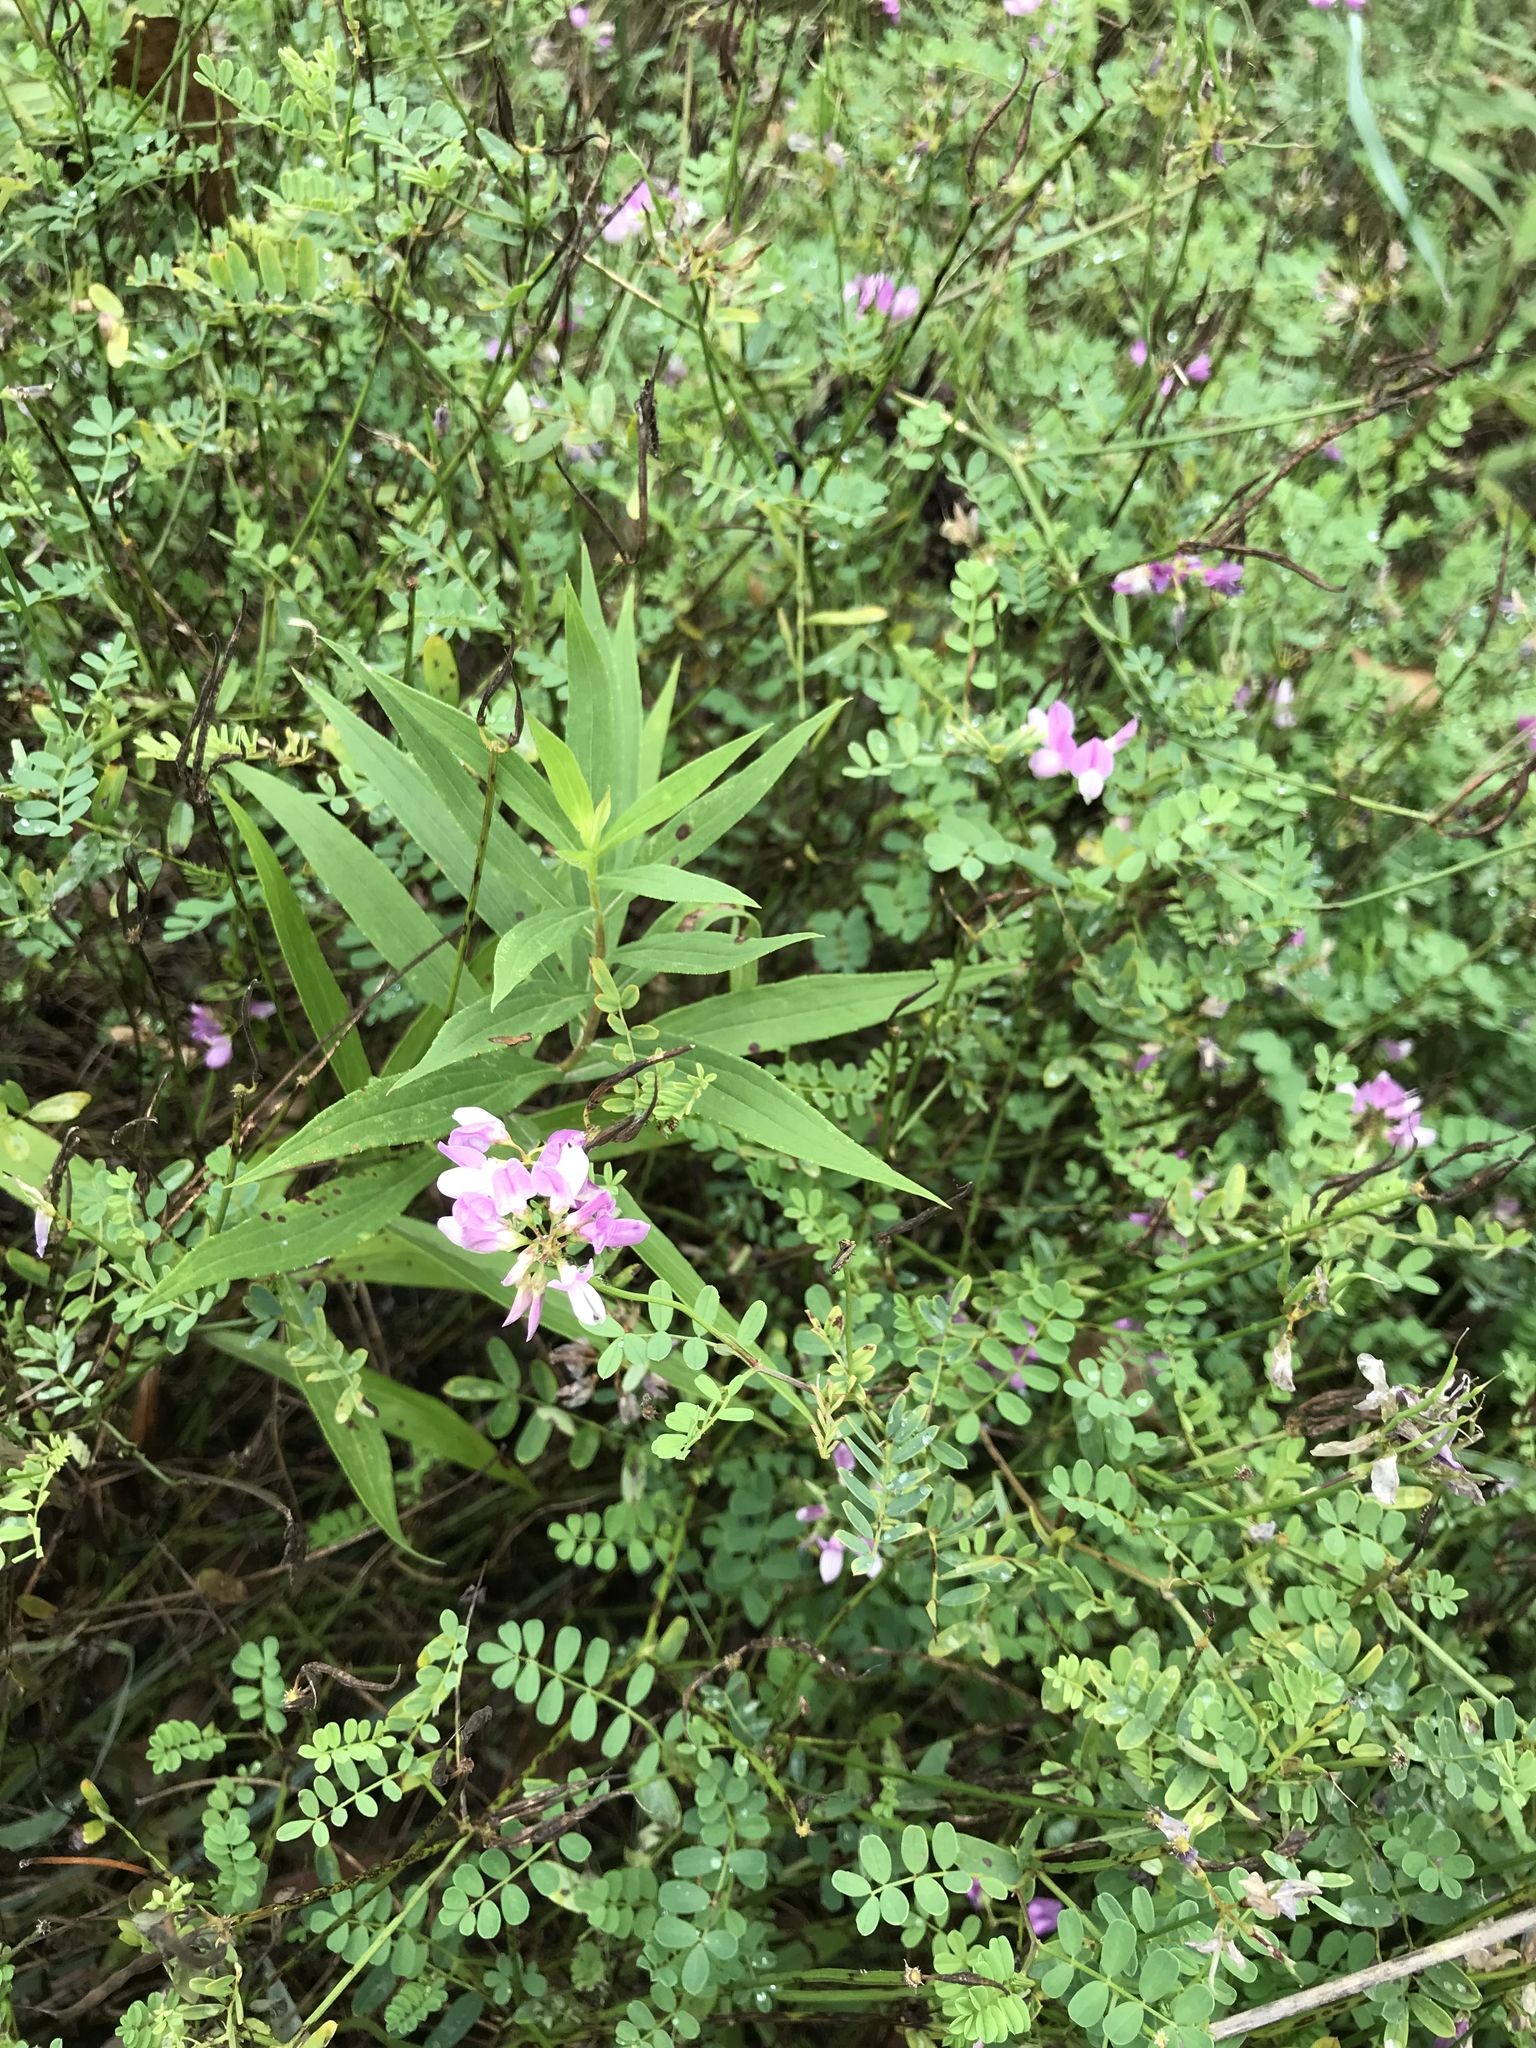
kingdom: Plantae
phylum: Tracheophyta
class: Magnoliopsida
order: Fabales
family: Fabaceae
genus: Coronilla
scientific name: Coronilla varia
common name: Crownvetch
